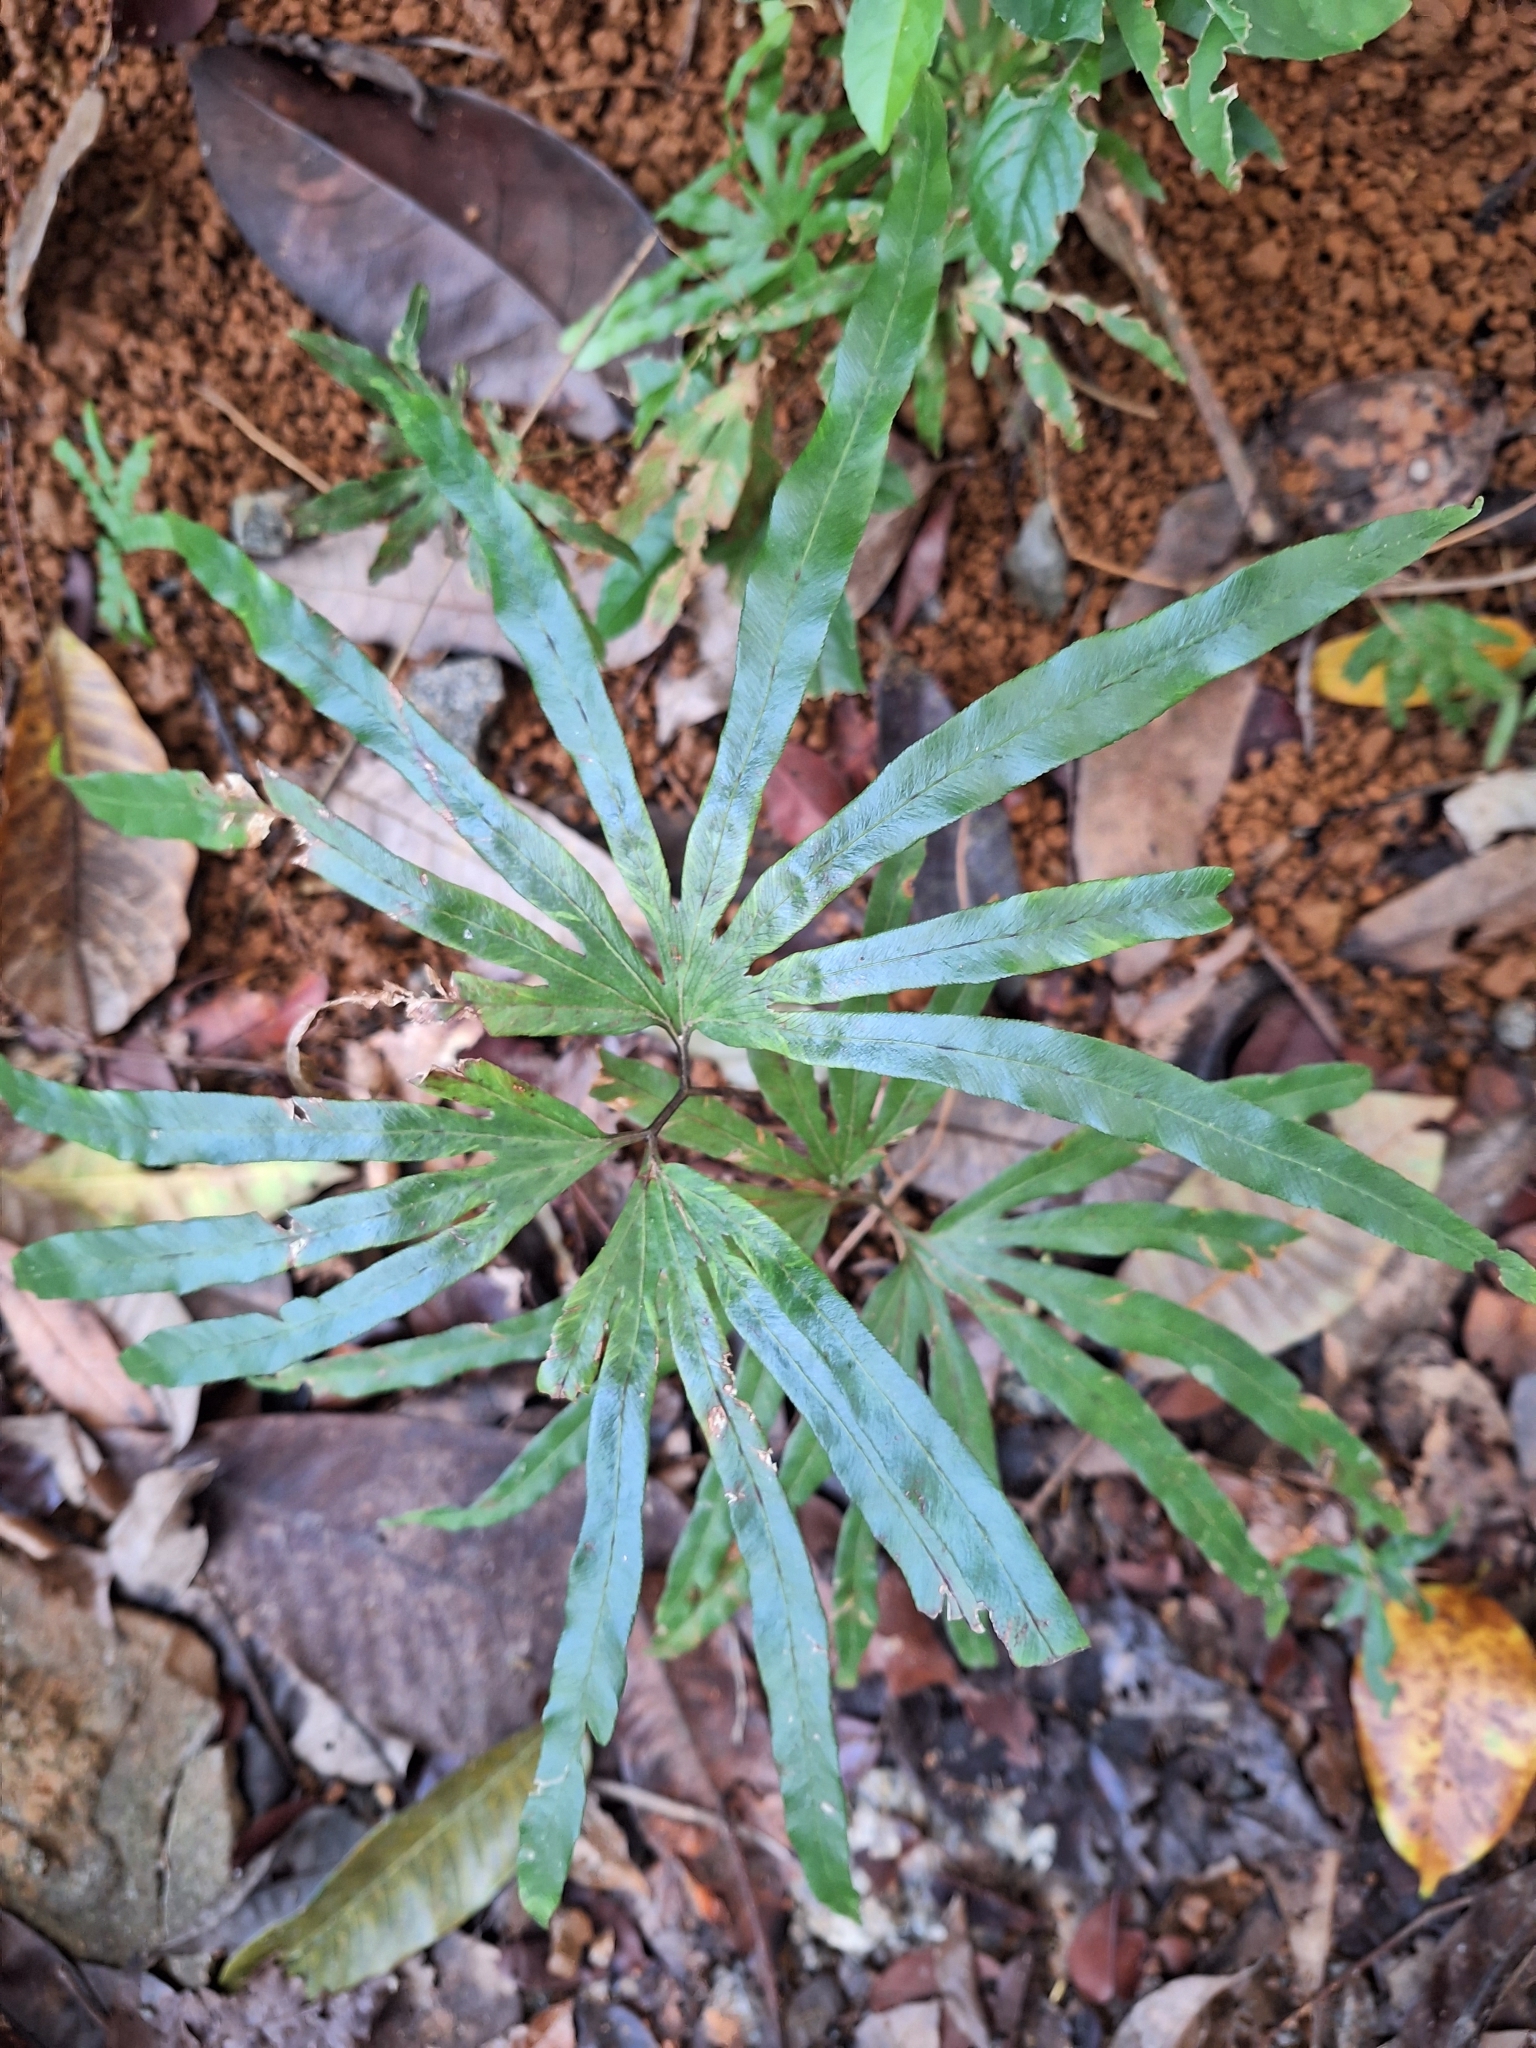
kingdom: Plantae
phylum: Tracheophyta
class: Polypodiopsida
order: Schizaeales
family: Lygodiaceae
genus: Lygodium
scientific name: Lygodium longifolium
